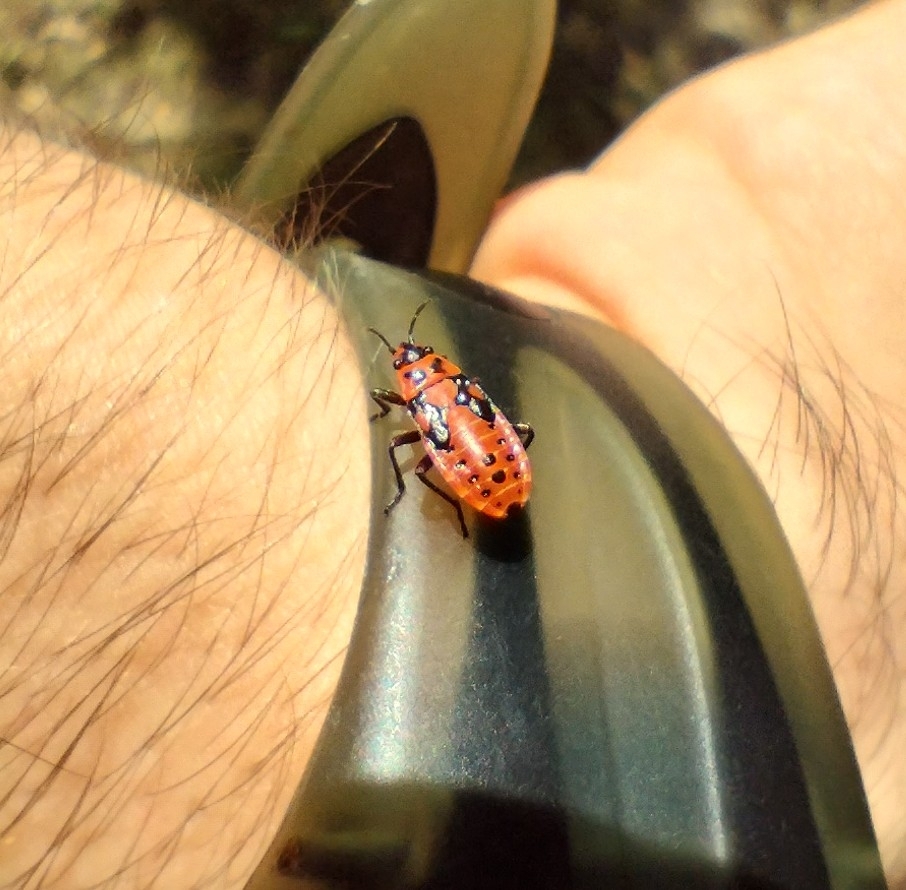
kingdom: Animalia
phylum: Arthropoda
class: Insecta
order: Hemiptera
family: Lygaeidae
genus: Spilostethus
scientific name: Spilostethus saxatilis
